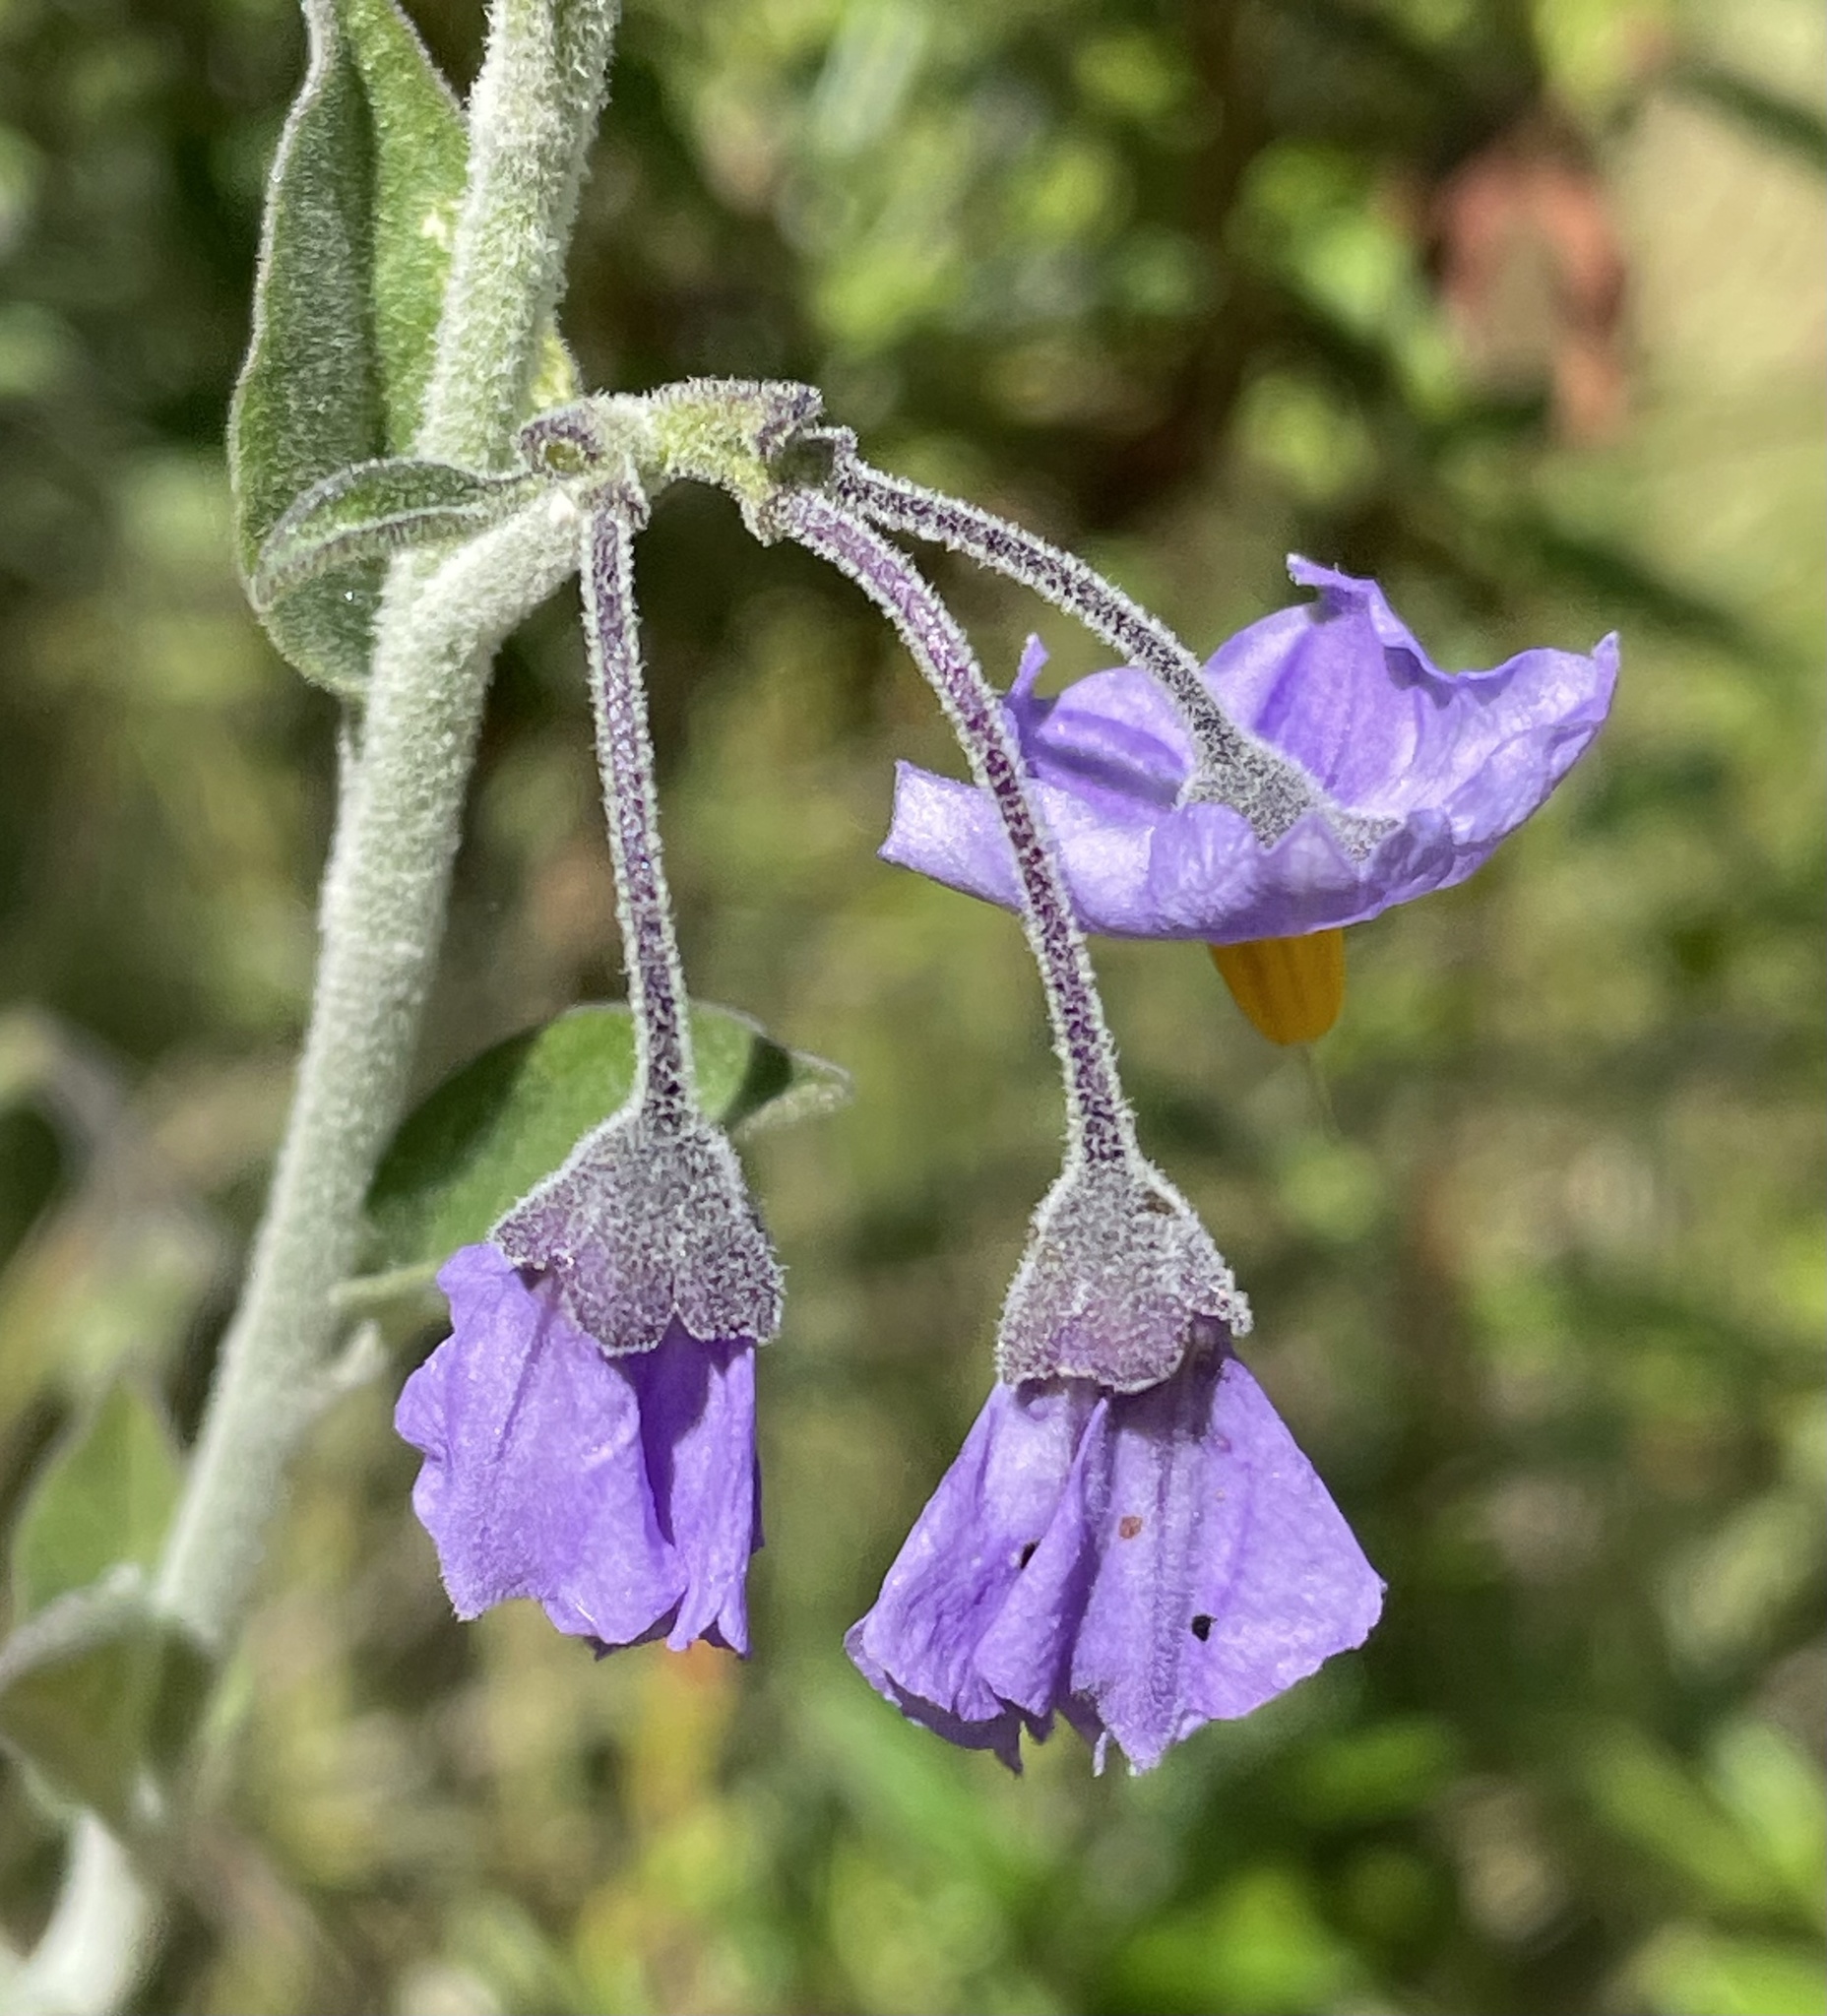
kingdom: Plantae
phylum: Tracheophyta
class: Magnoliopsida
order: Solanales
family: Solanaceae
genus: Solanum
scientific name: Solanum umbelliferum
